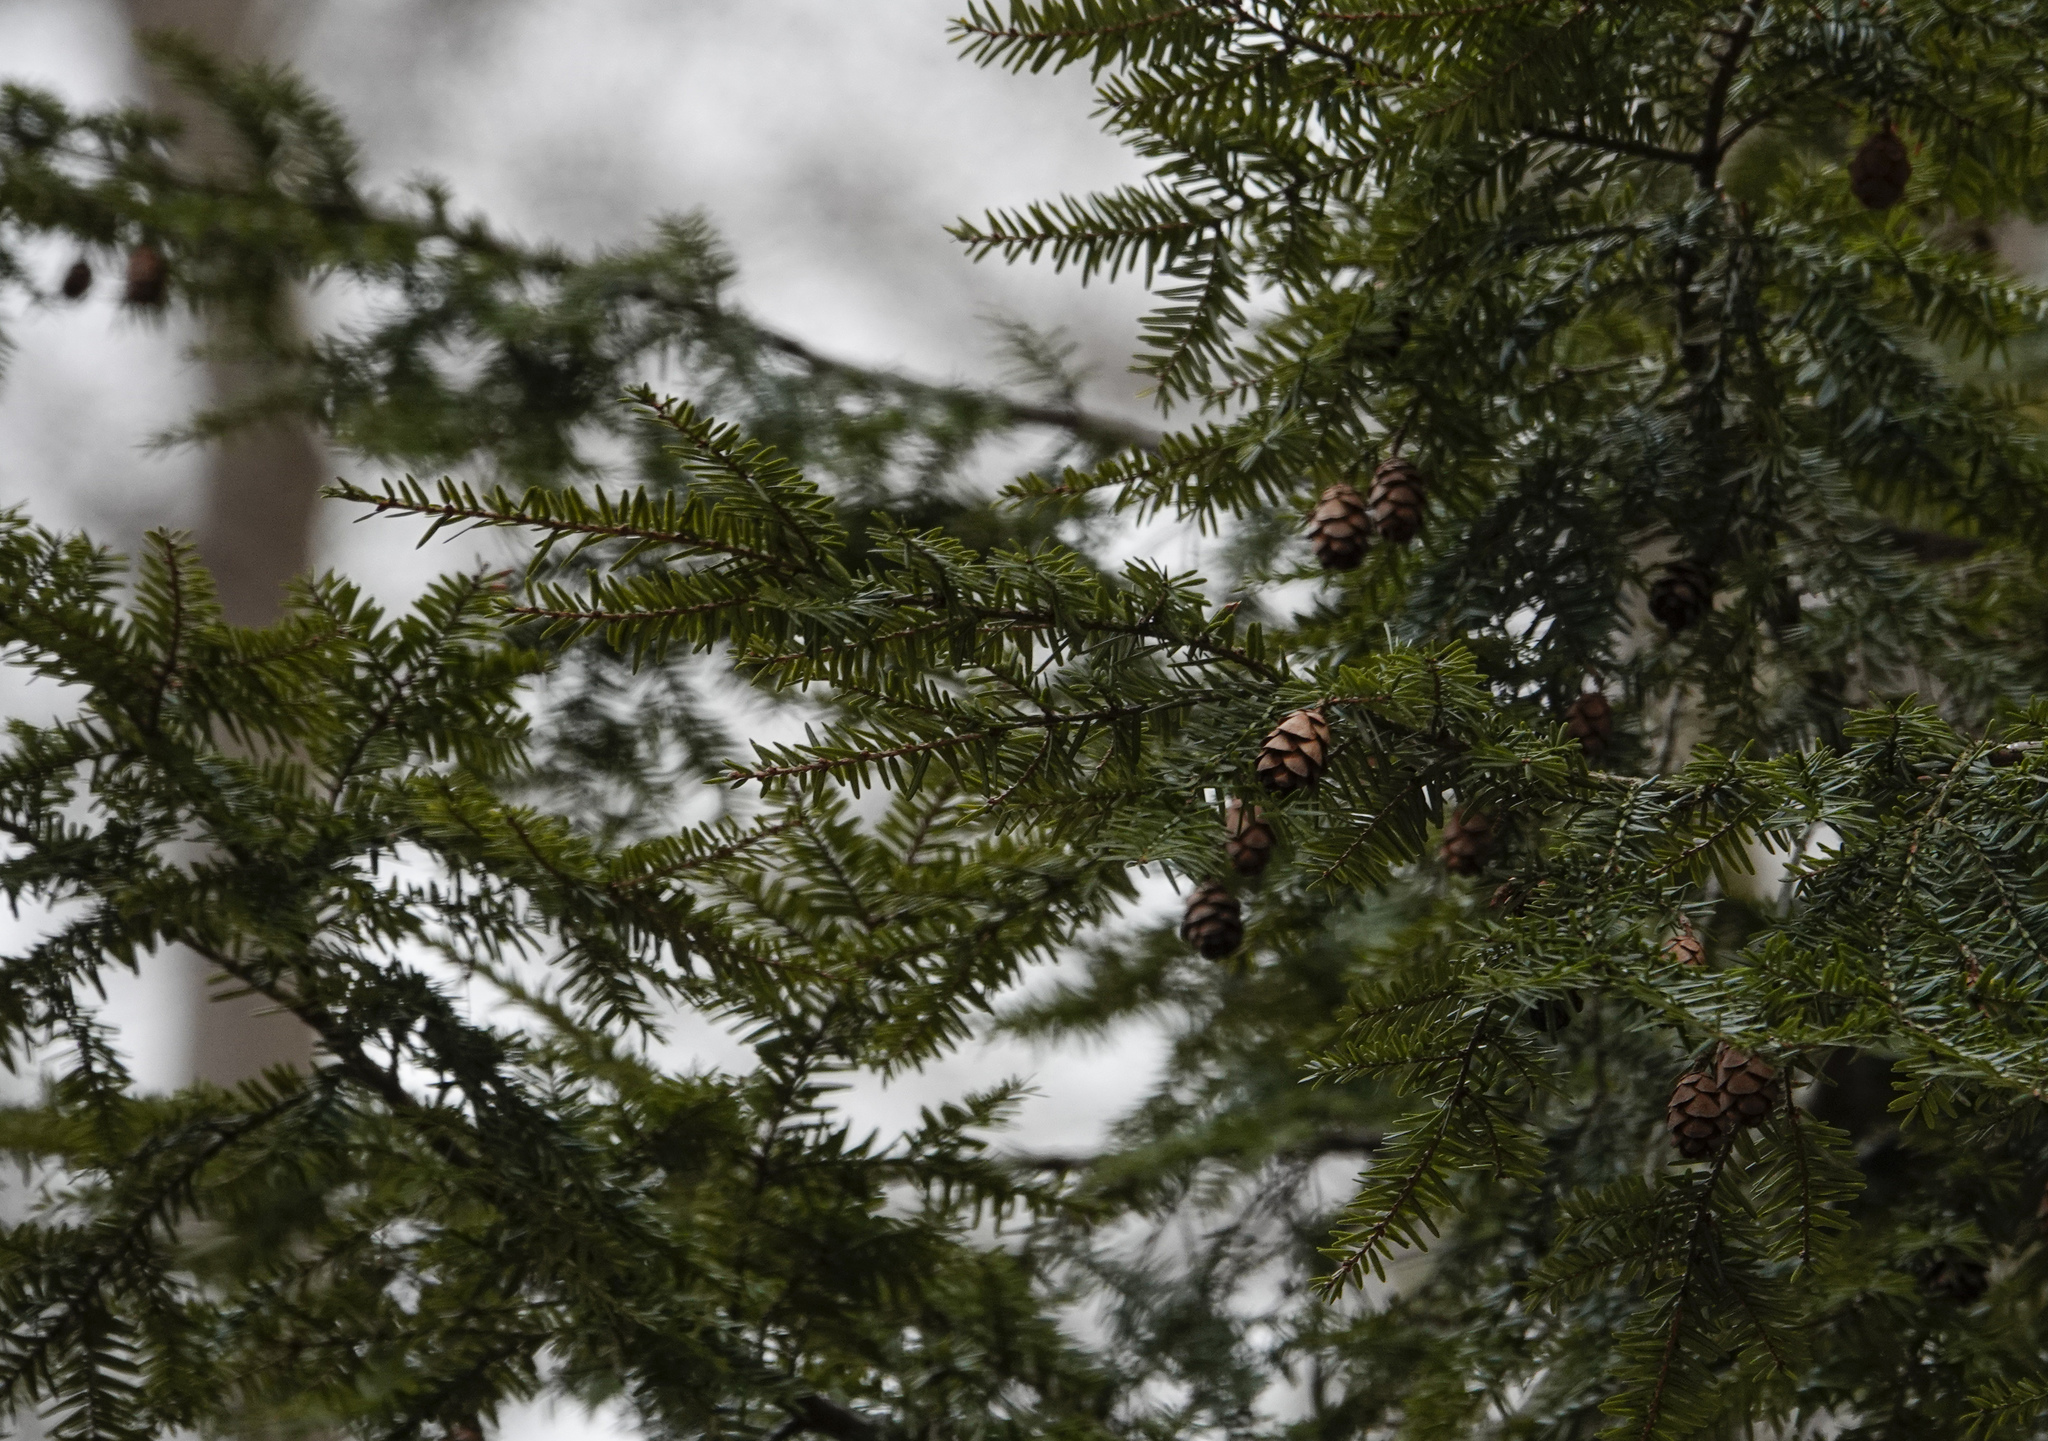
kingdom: Plantae
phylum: Tracheophyta
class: Pinopsida
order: Pinales
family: Pinaceae
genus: Tsuga
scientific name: Tsuga canadensis
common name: Eastern hemlock
